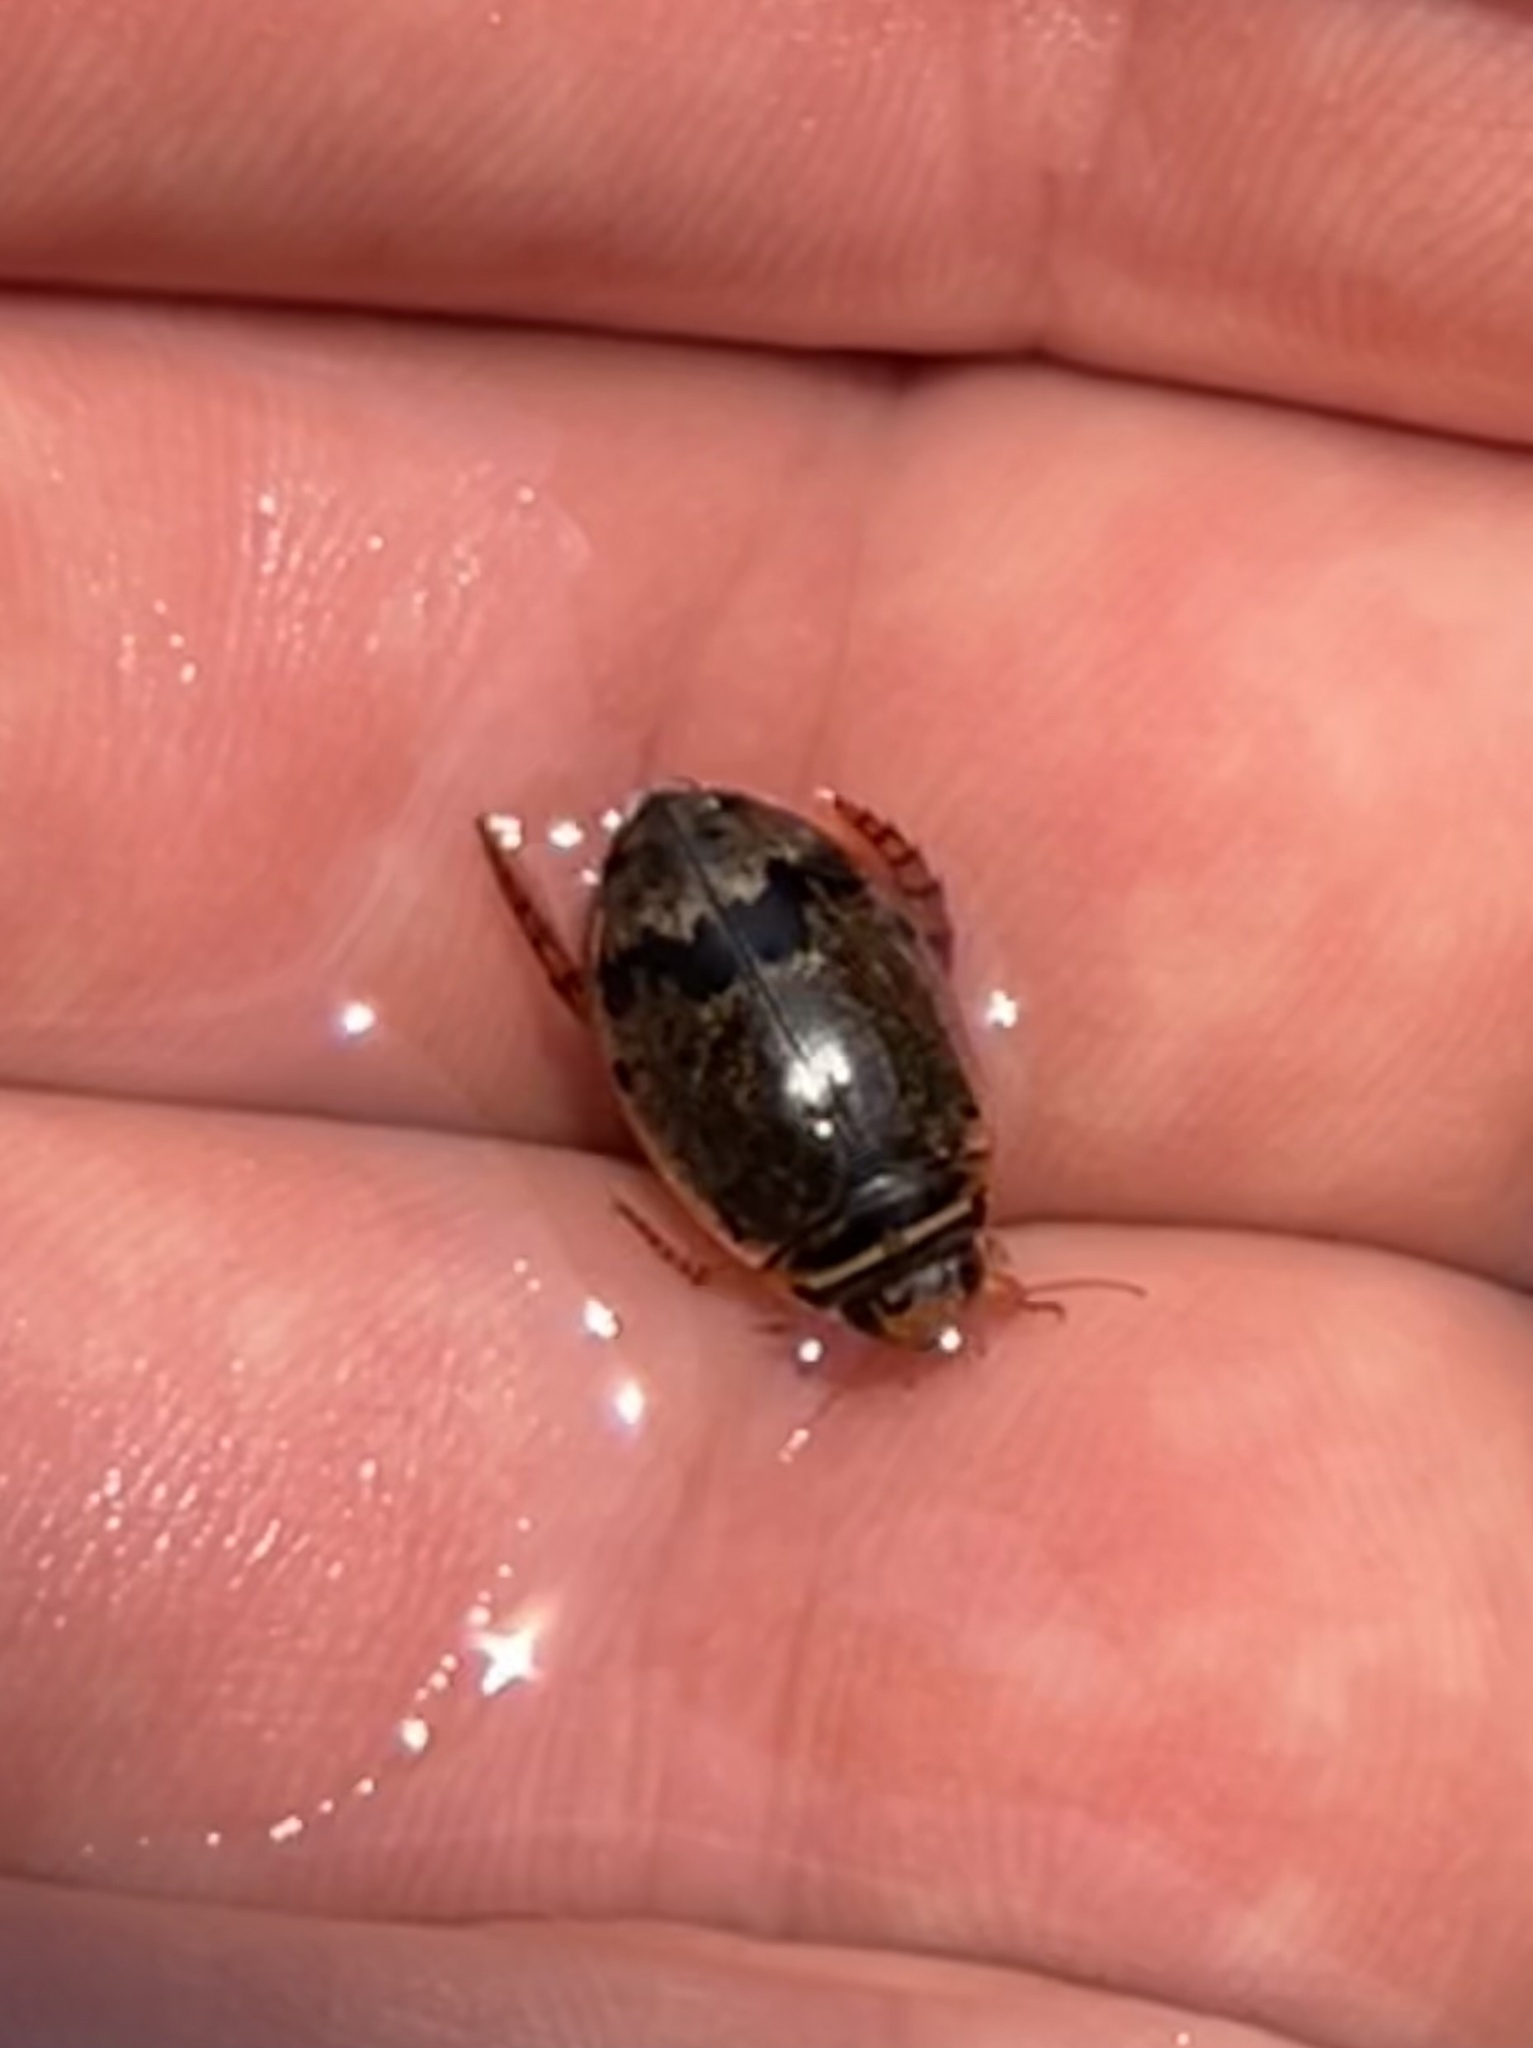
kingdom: Animalia
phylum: Arthropoda
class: Insecta
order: Coleoptera
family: Dytiscidae
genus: Thermonectus
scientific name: Thermonectus nigrofasciatus
